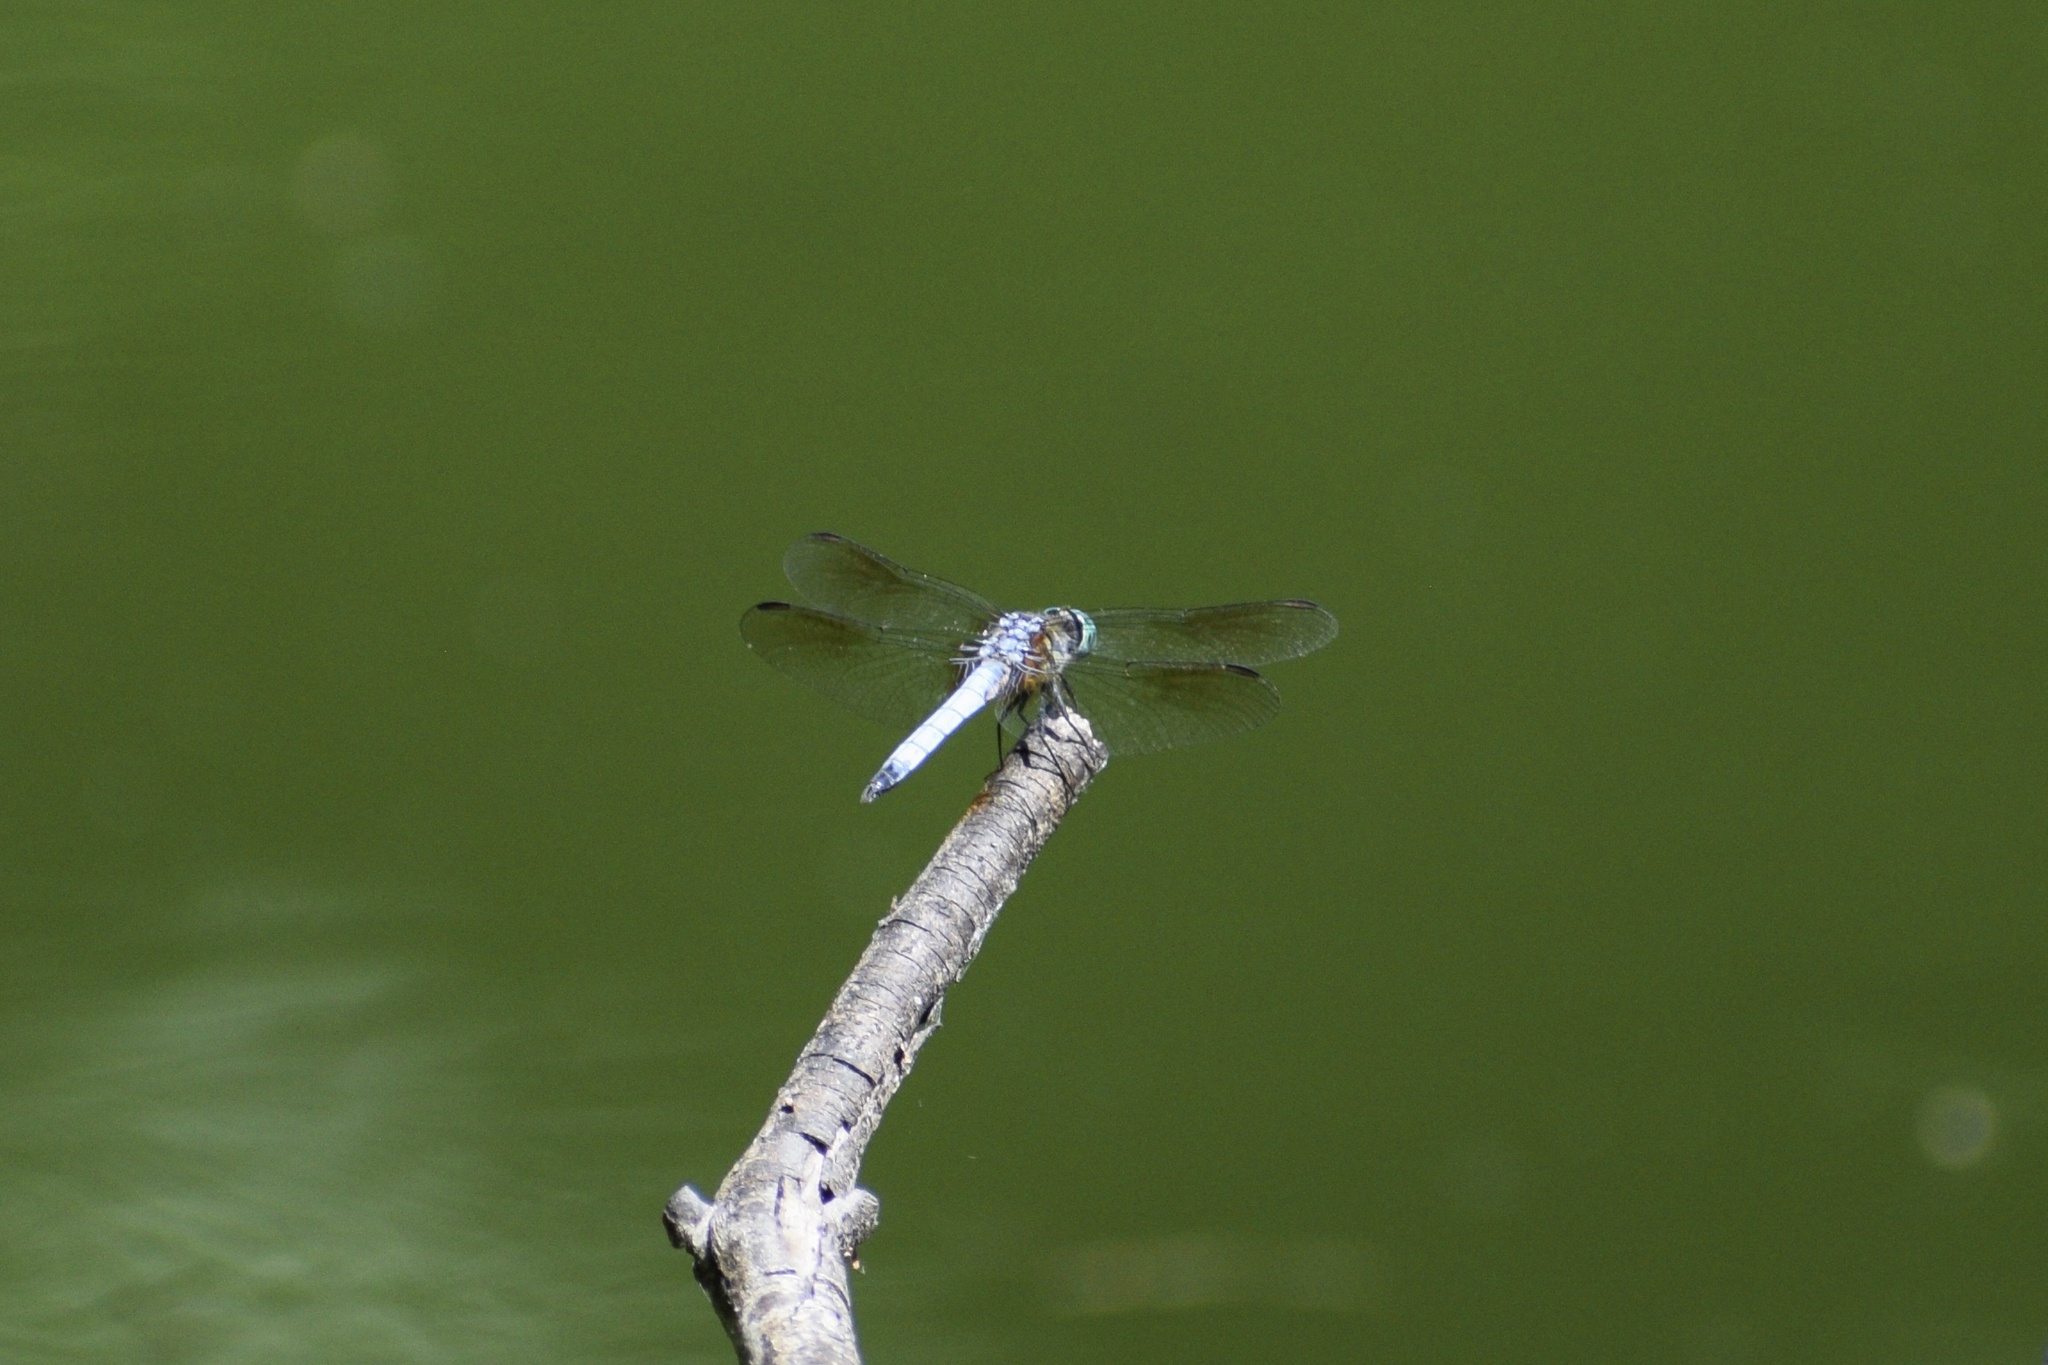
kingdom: Animalia
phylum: Arthropoda
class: Insecta
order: Odonata
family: Libellulidae
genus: Pachydiplax
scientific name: Pachydiplax longipennis
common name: Blue dasher
